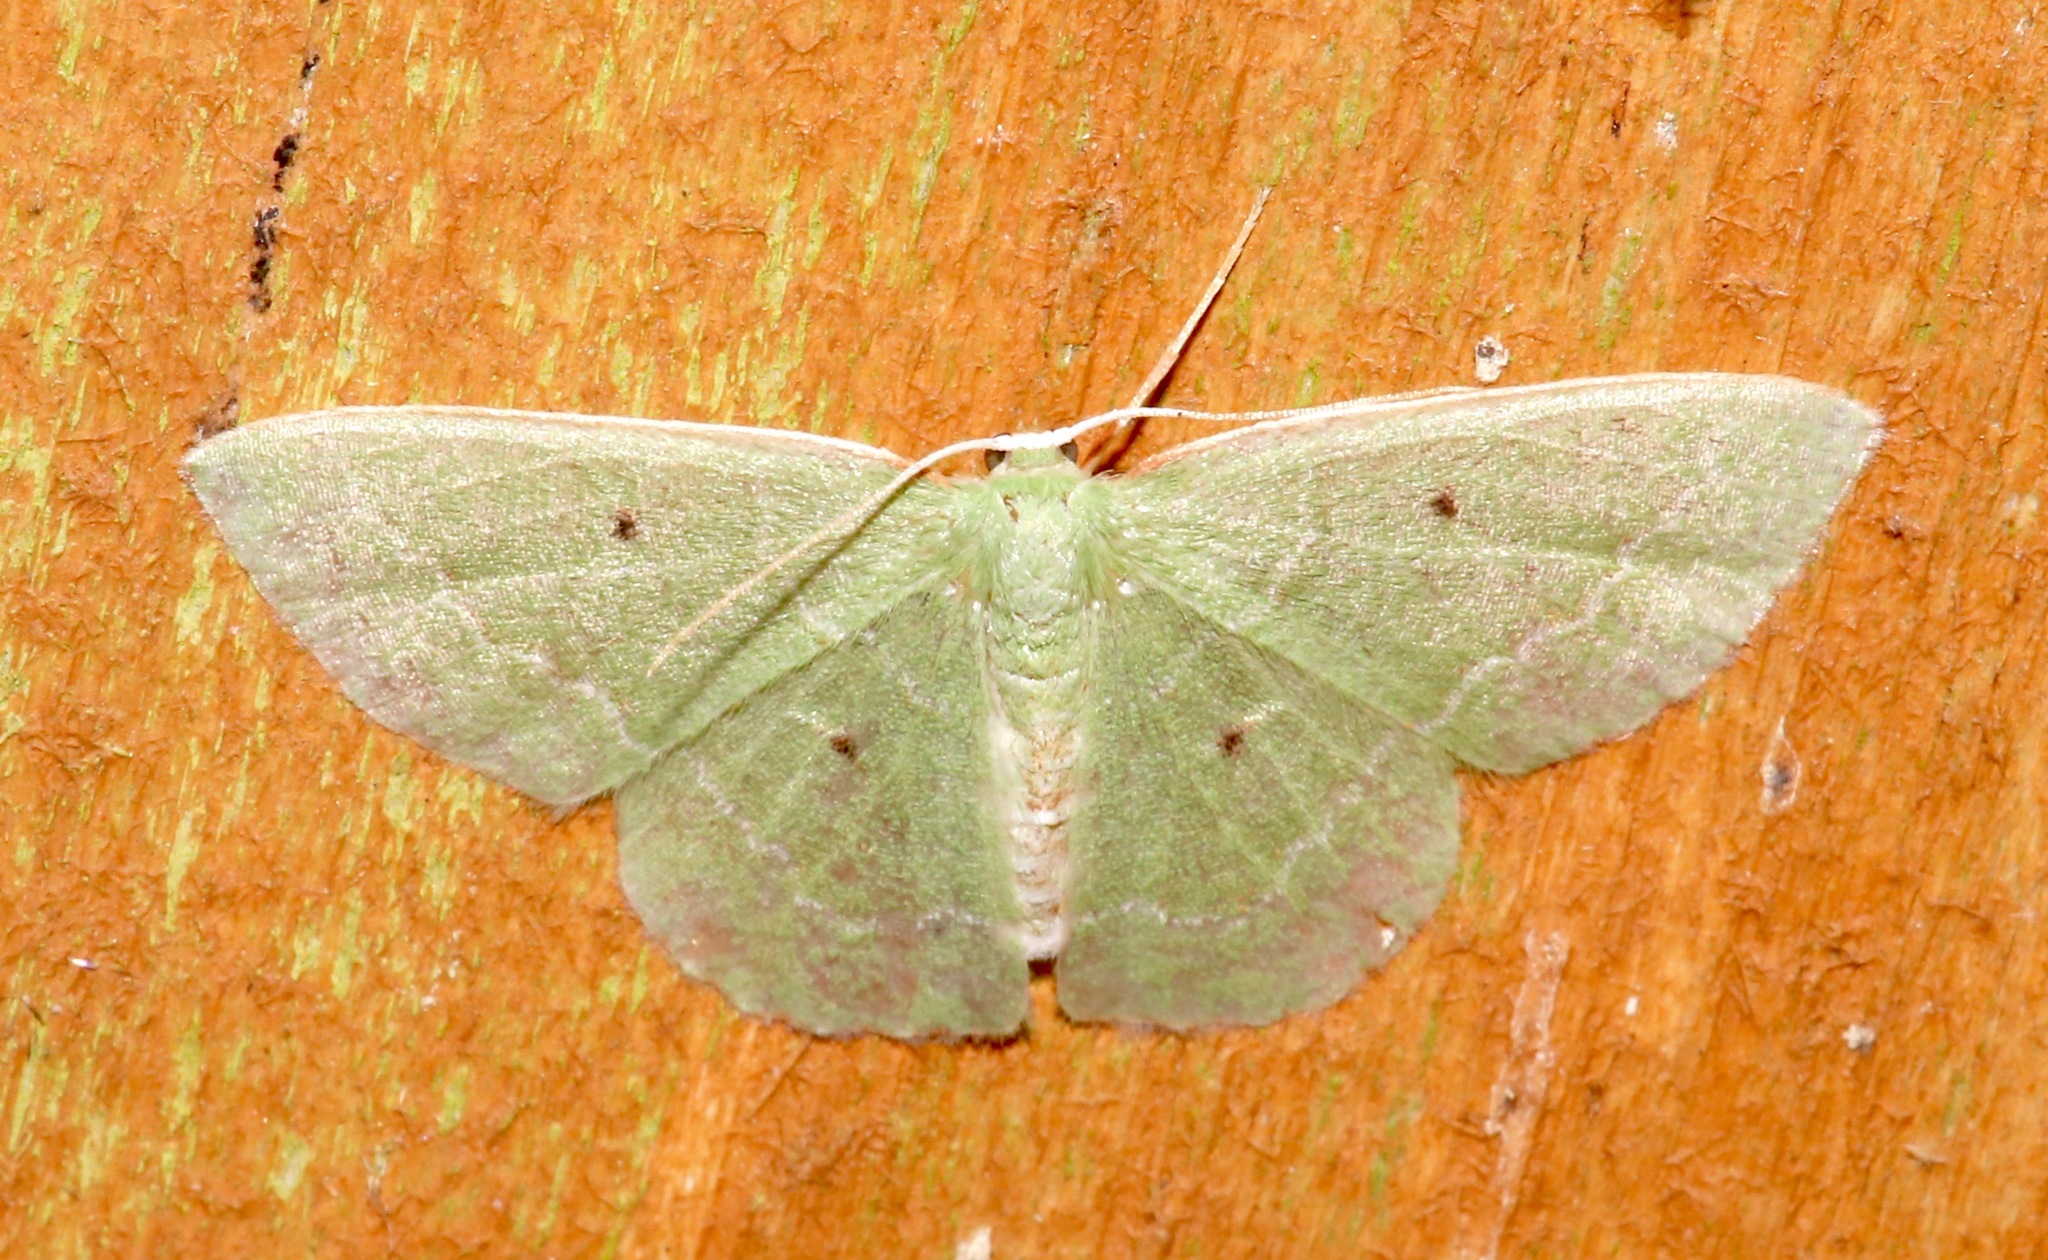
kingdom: Animalia
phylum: Arthropoda
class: Insecta
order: Lepidoptera
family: Geometridae
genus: Nemoria
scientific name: Nemoria elfa
